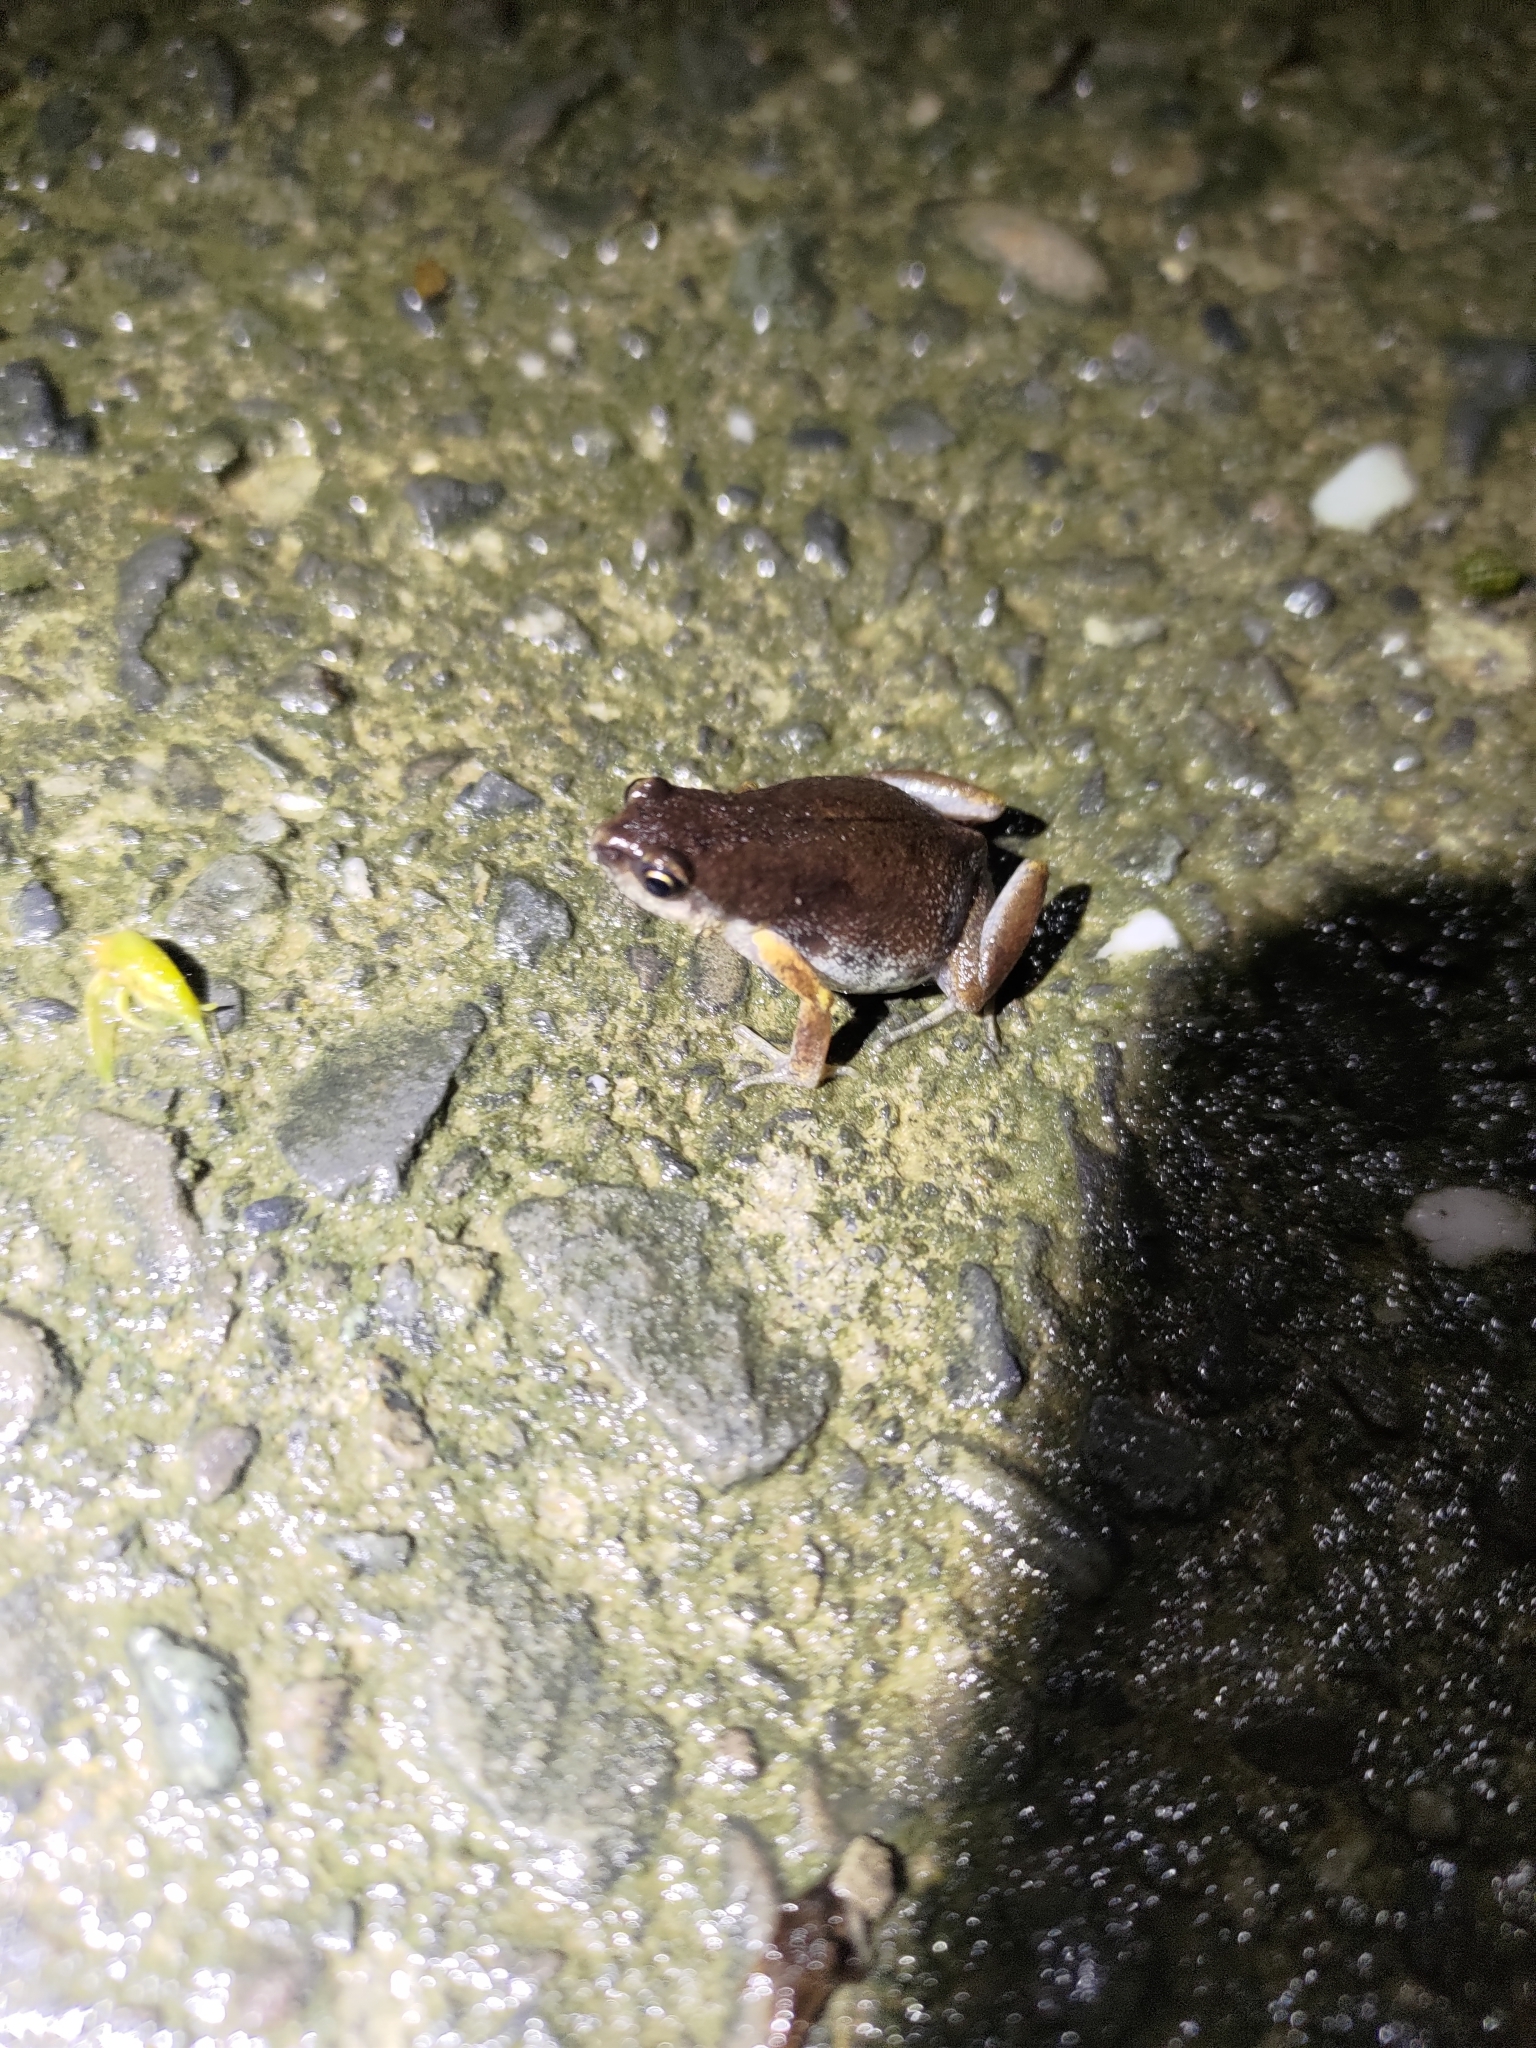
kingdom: Animalia
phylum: Chordata
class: Amphibia
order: Anura
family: Microhylidae
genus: Micryletta
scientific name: Micryletta steinegeri
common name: Stejneger's paddy frog
